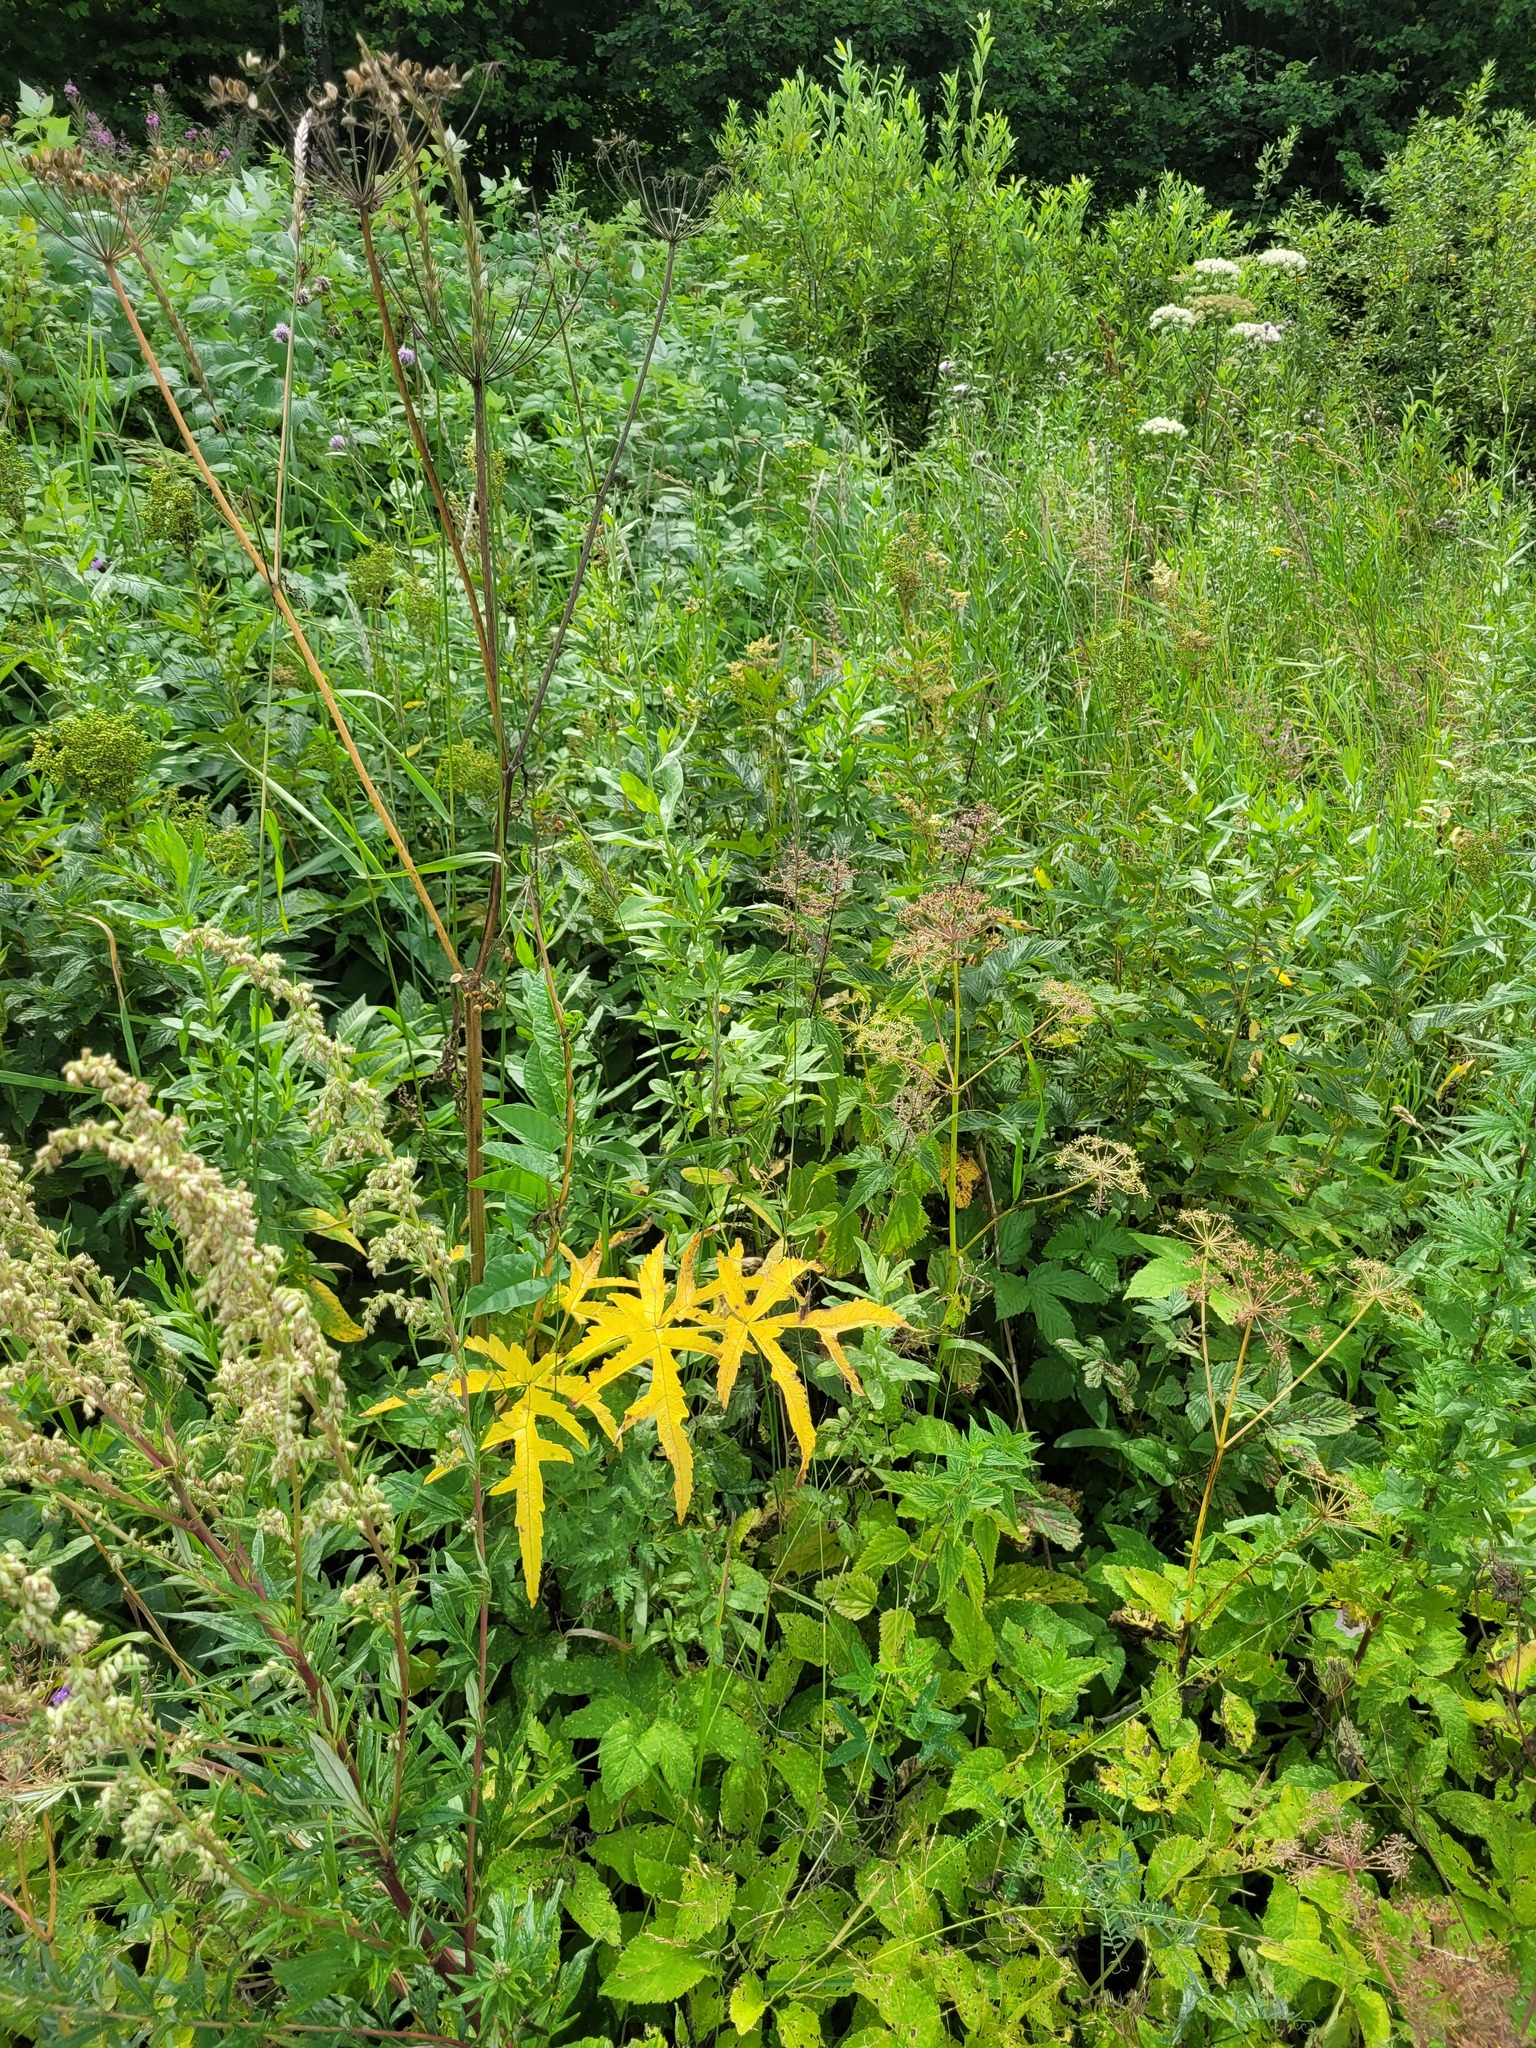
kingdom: Plantae
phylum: Tracheophyta
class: Magnoliopsida
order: Apiales
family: Apiaceae
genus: Heracleum
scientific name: Heracleum sphondylium
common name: Hogweed
